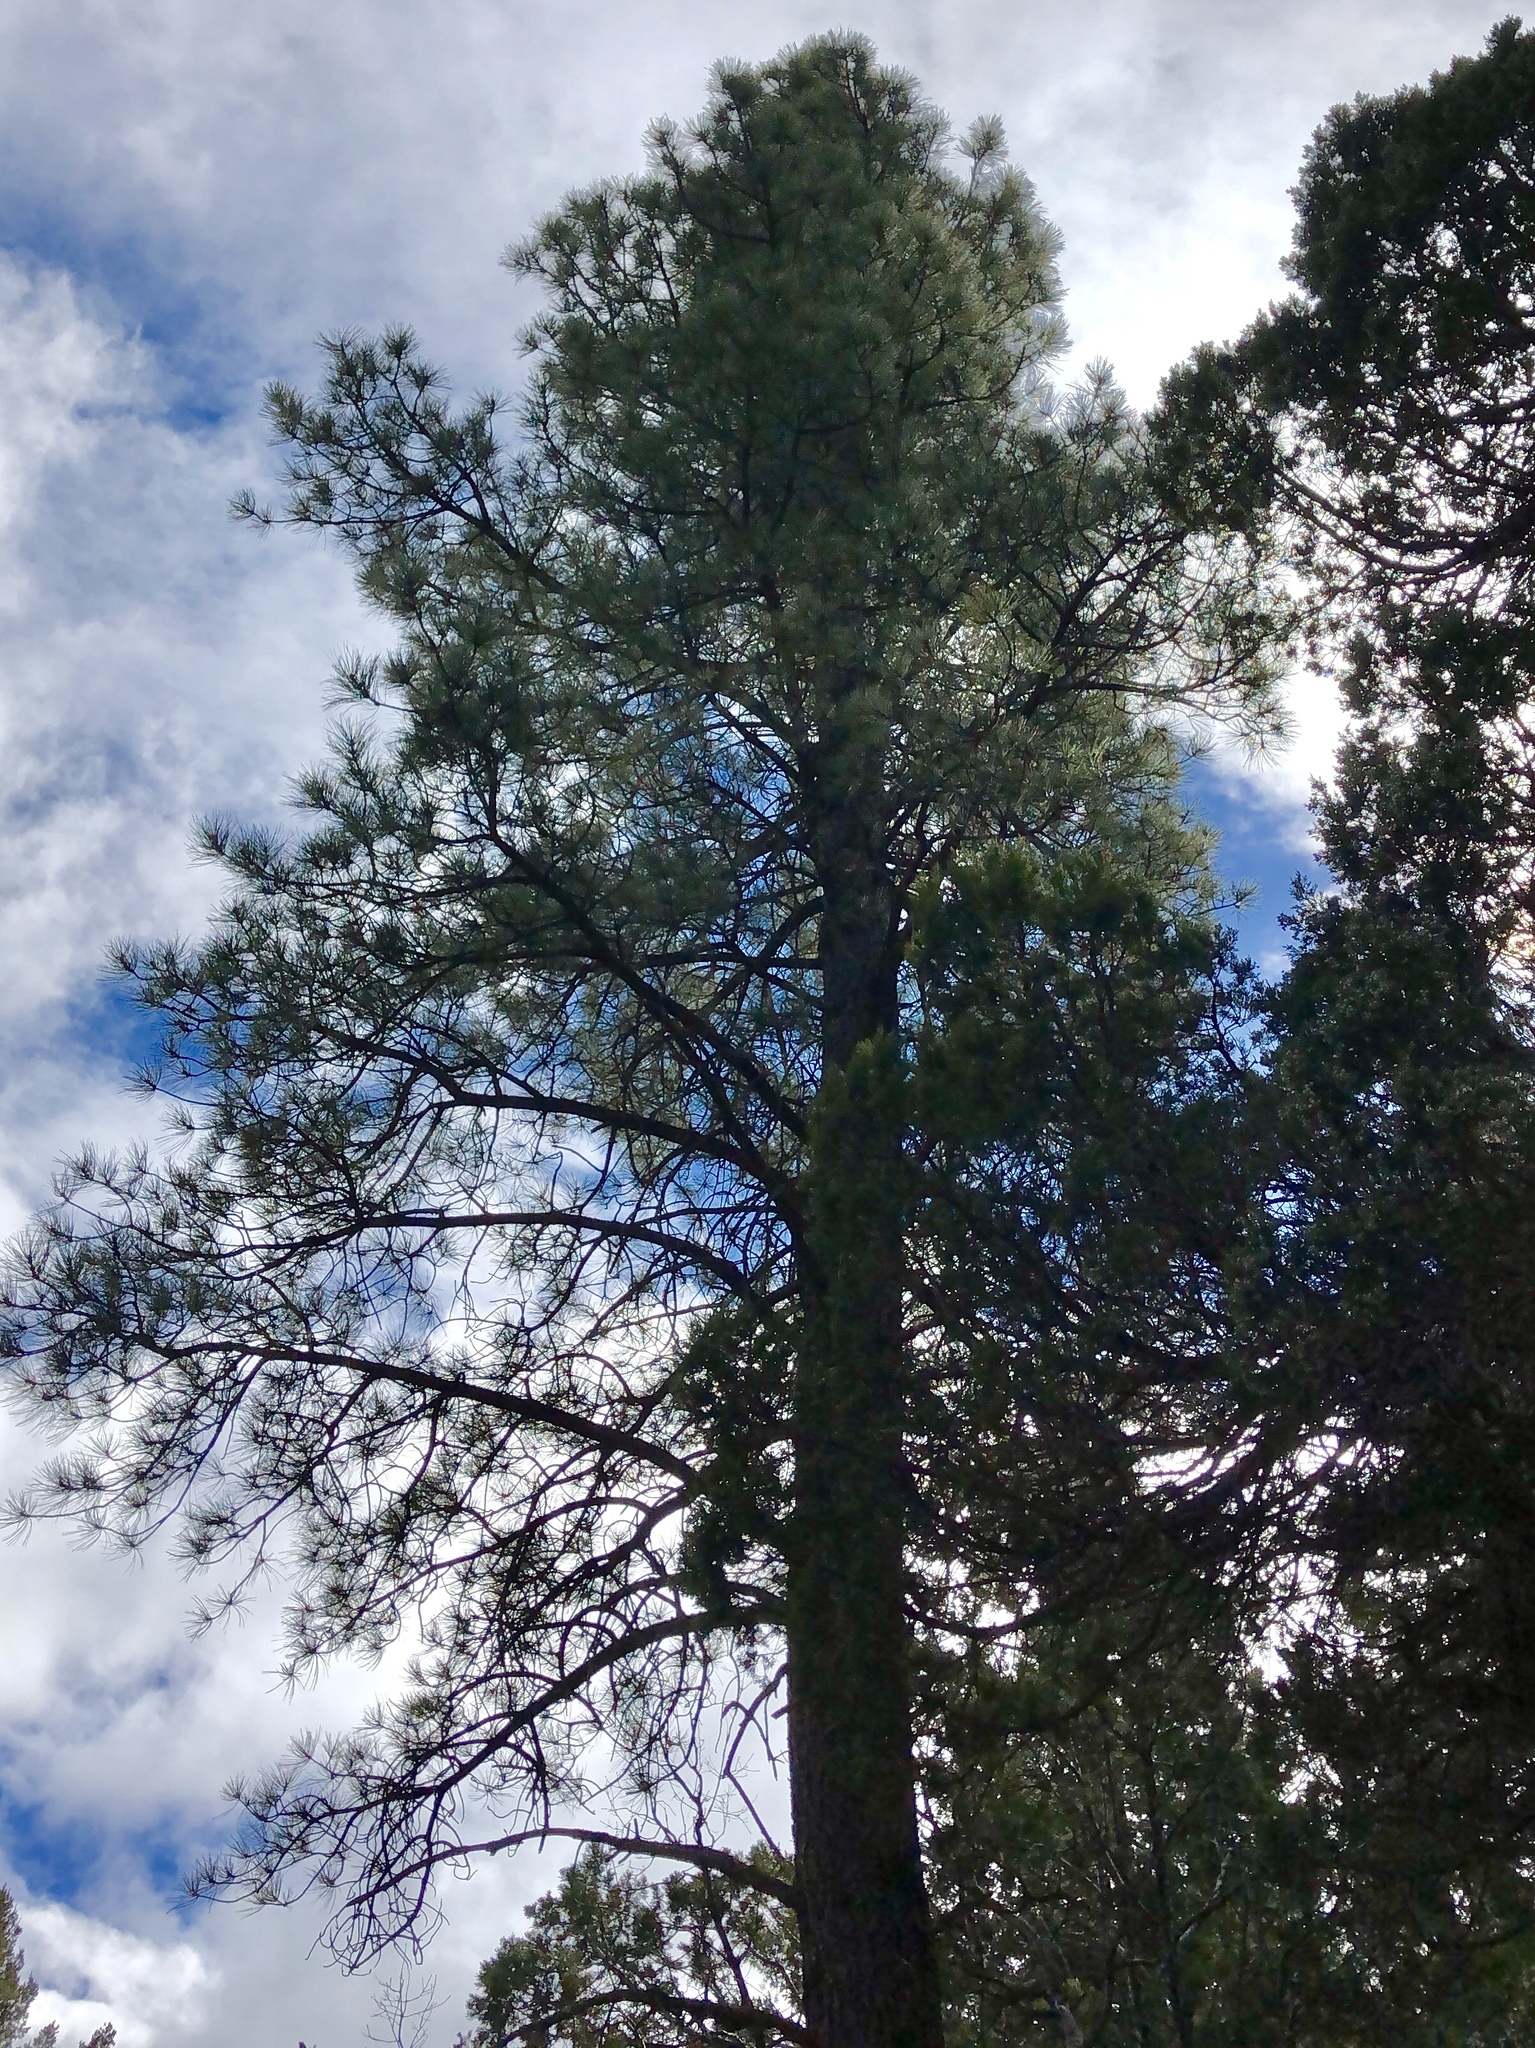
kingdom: Plantae
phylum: Tracheophyta
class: Pinopsida
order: Pinales
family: Pinaceae
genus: Pinus
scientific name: Pinus ponderosa
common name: Western yellow-pine
